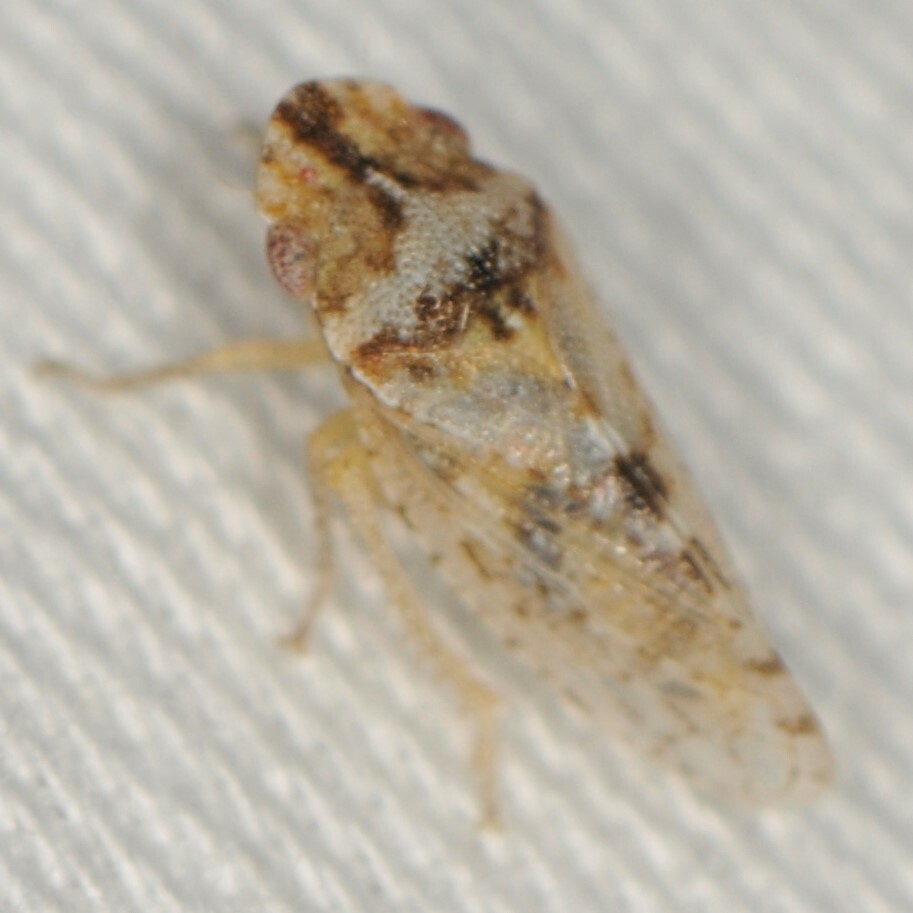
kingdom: Animalia
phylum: Arthropoda
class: Insecta
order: Hemiptera
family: Cicadellidae
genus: Xerophloea
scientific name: Xerophloea viridis
